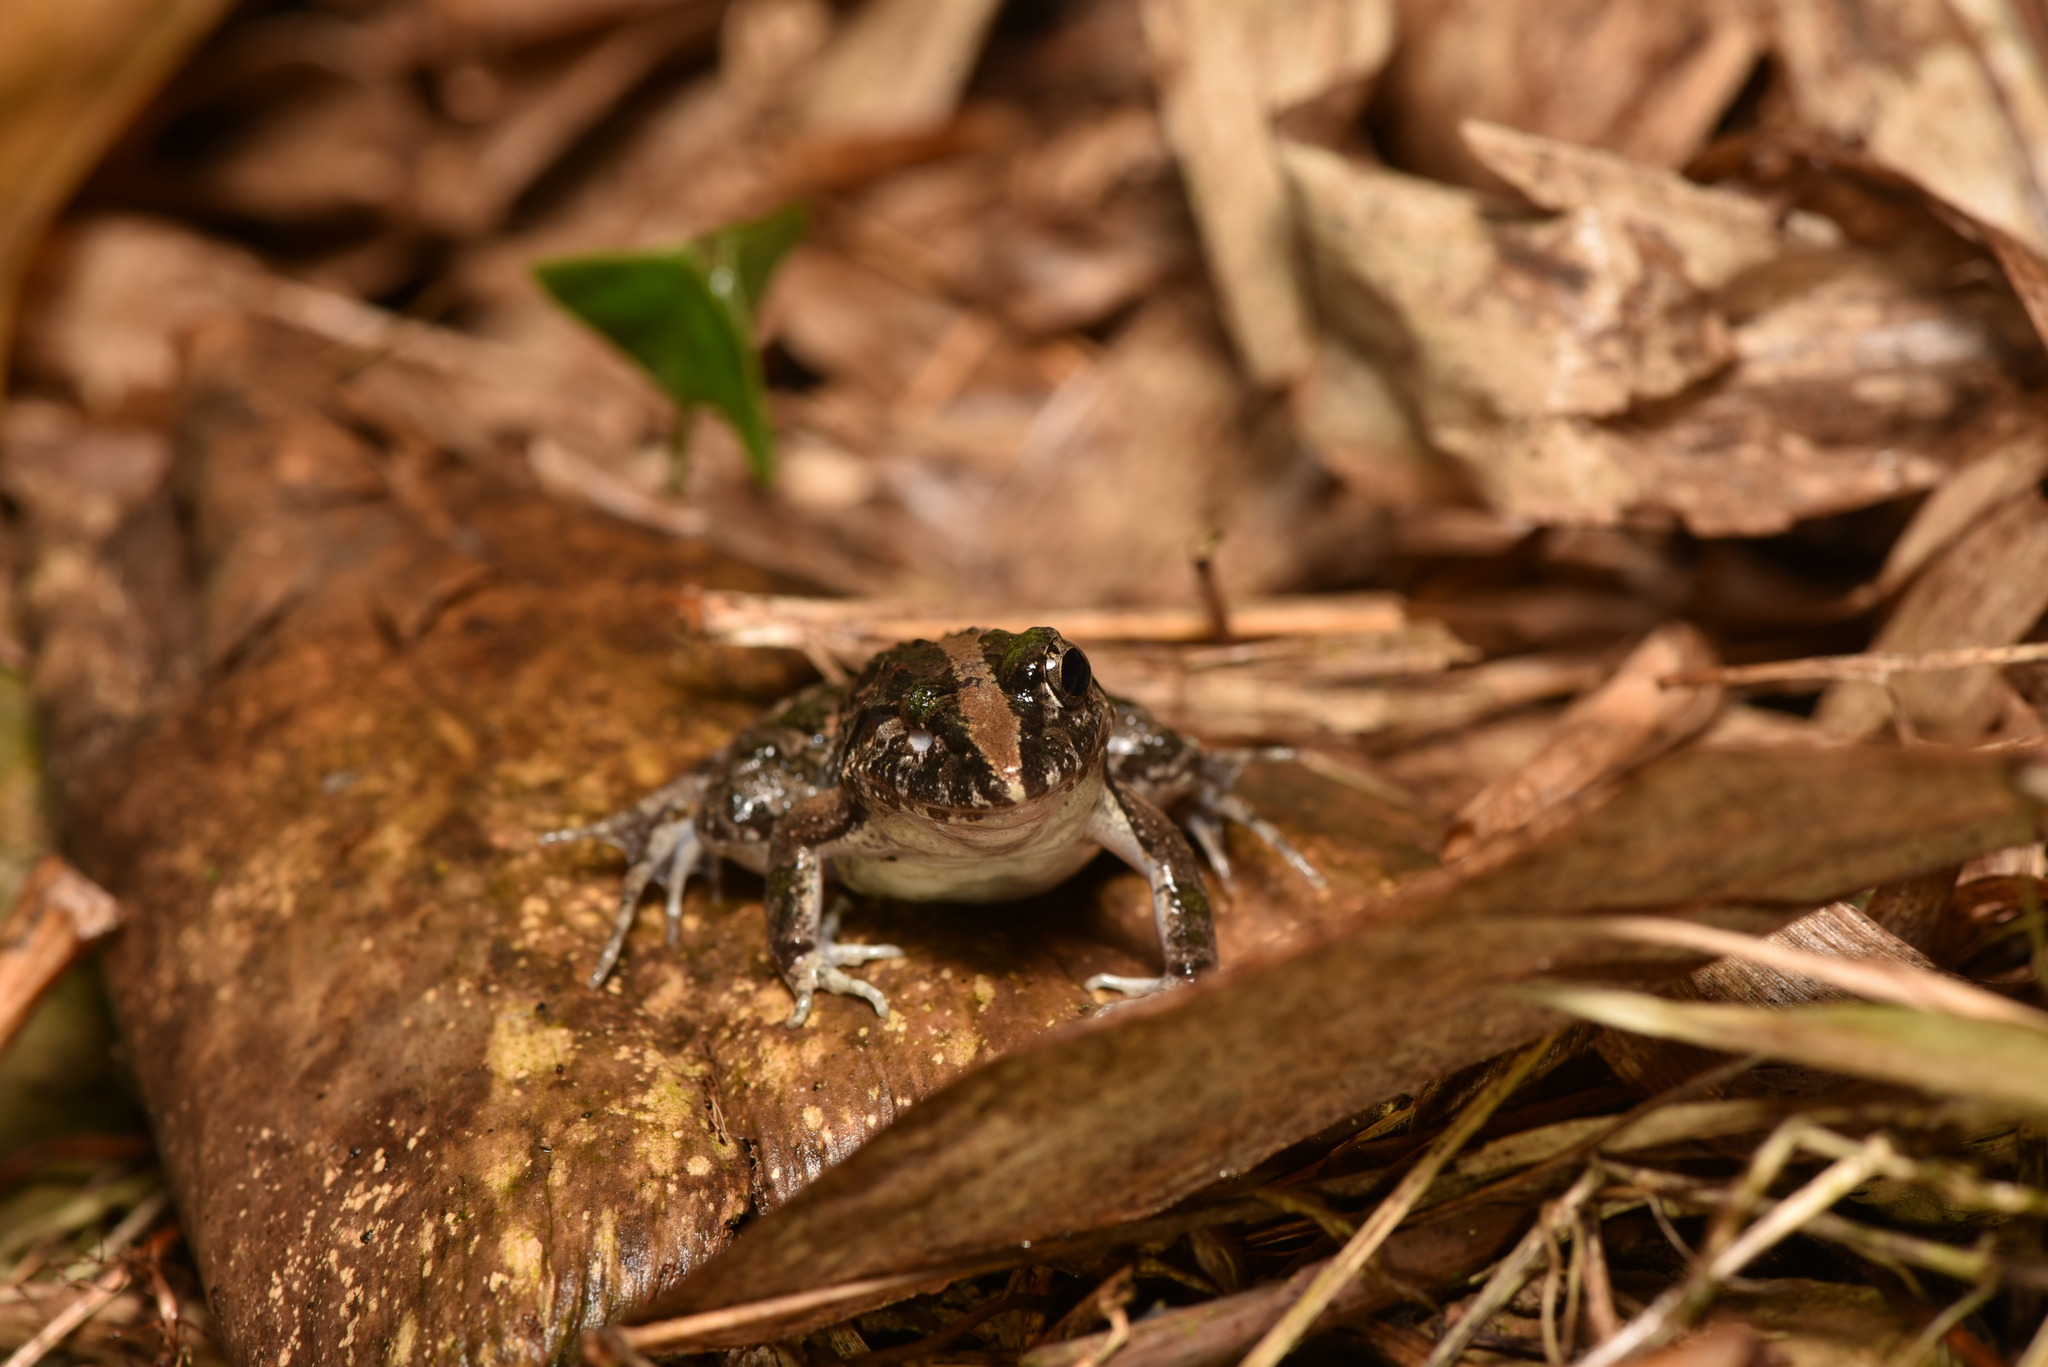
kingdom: Animalia
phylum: Chordata
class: Amphibia
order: Anura
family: Dicroglossidae
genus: Fejervarya
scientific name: Fejervarya limnocharis
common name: Asian grass frog/common pond frog/field frog/grass frog/indian rice frog
